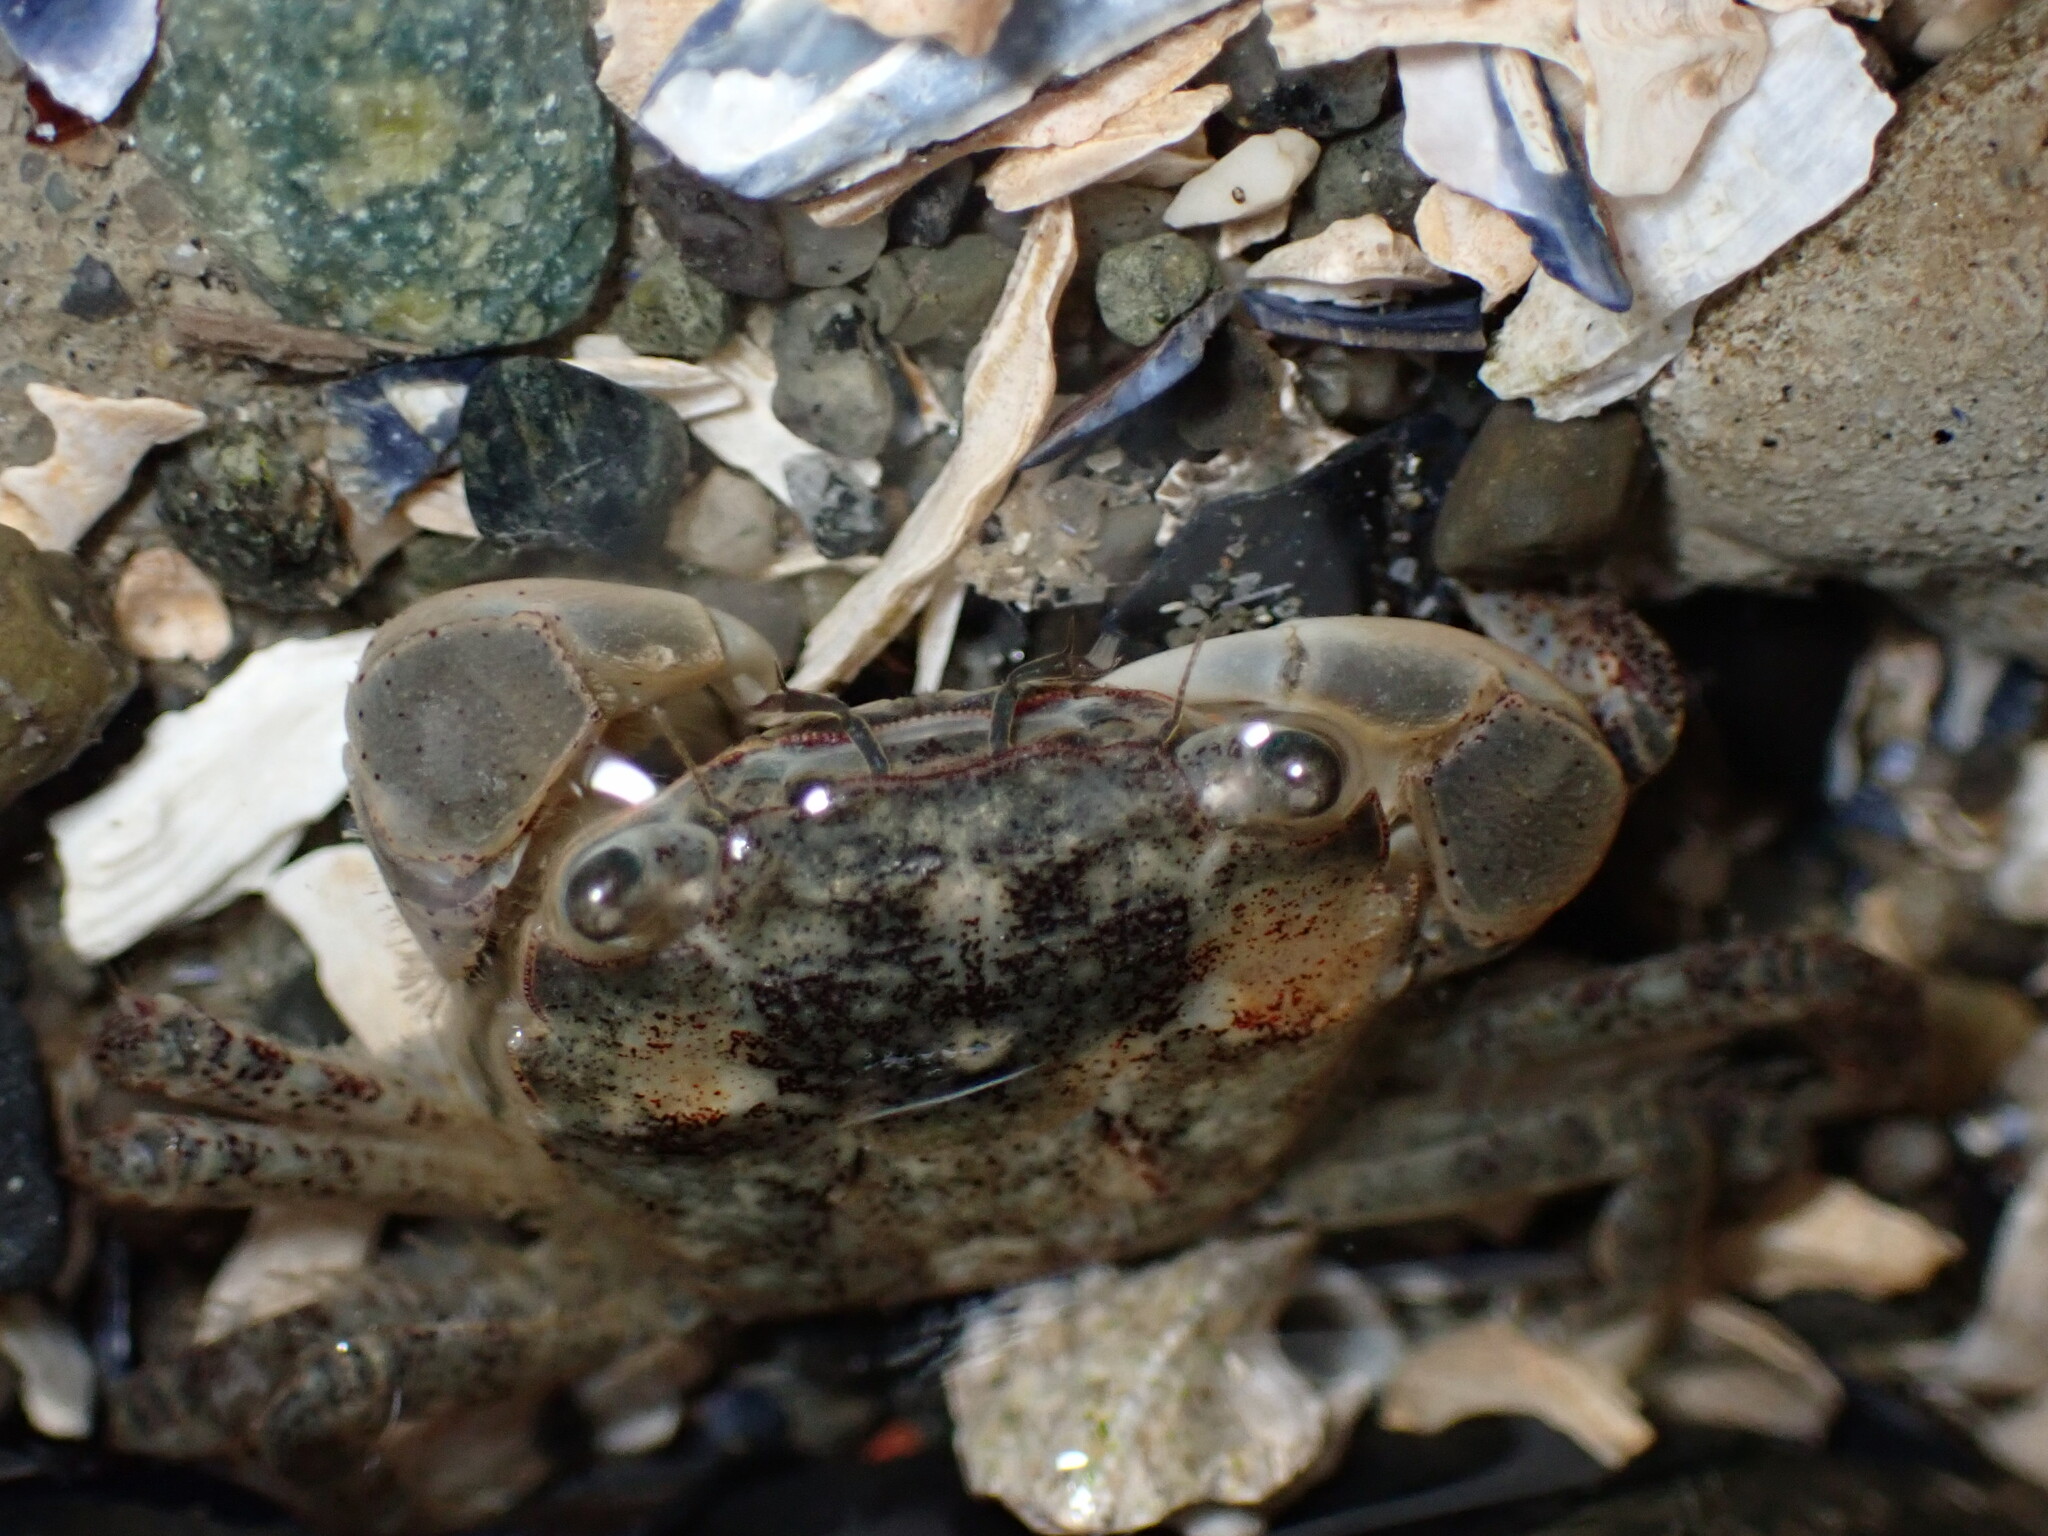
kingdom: Animalia
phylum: Arthropoda
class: Malacostraca
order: Decapoda
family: Varunidae
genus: Hemigrapsus
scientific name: Hemigrapsus oregonensis
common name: Yellow shore crab
